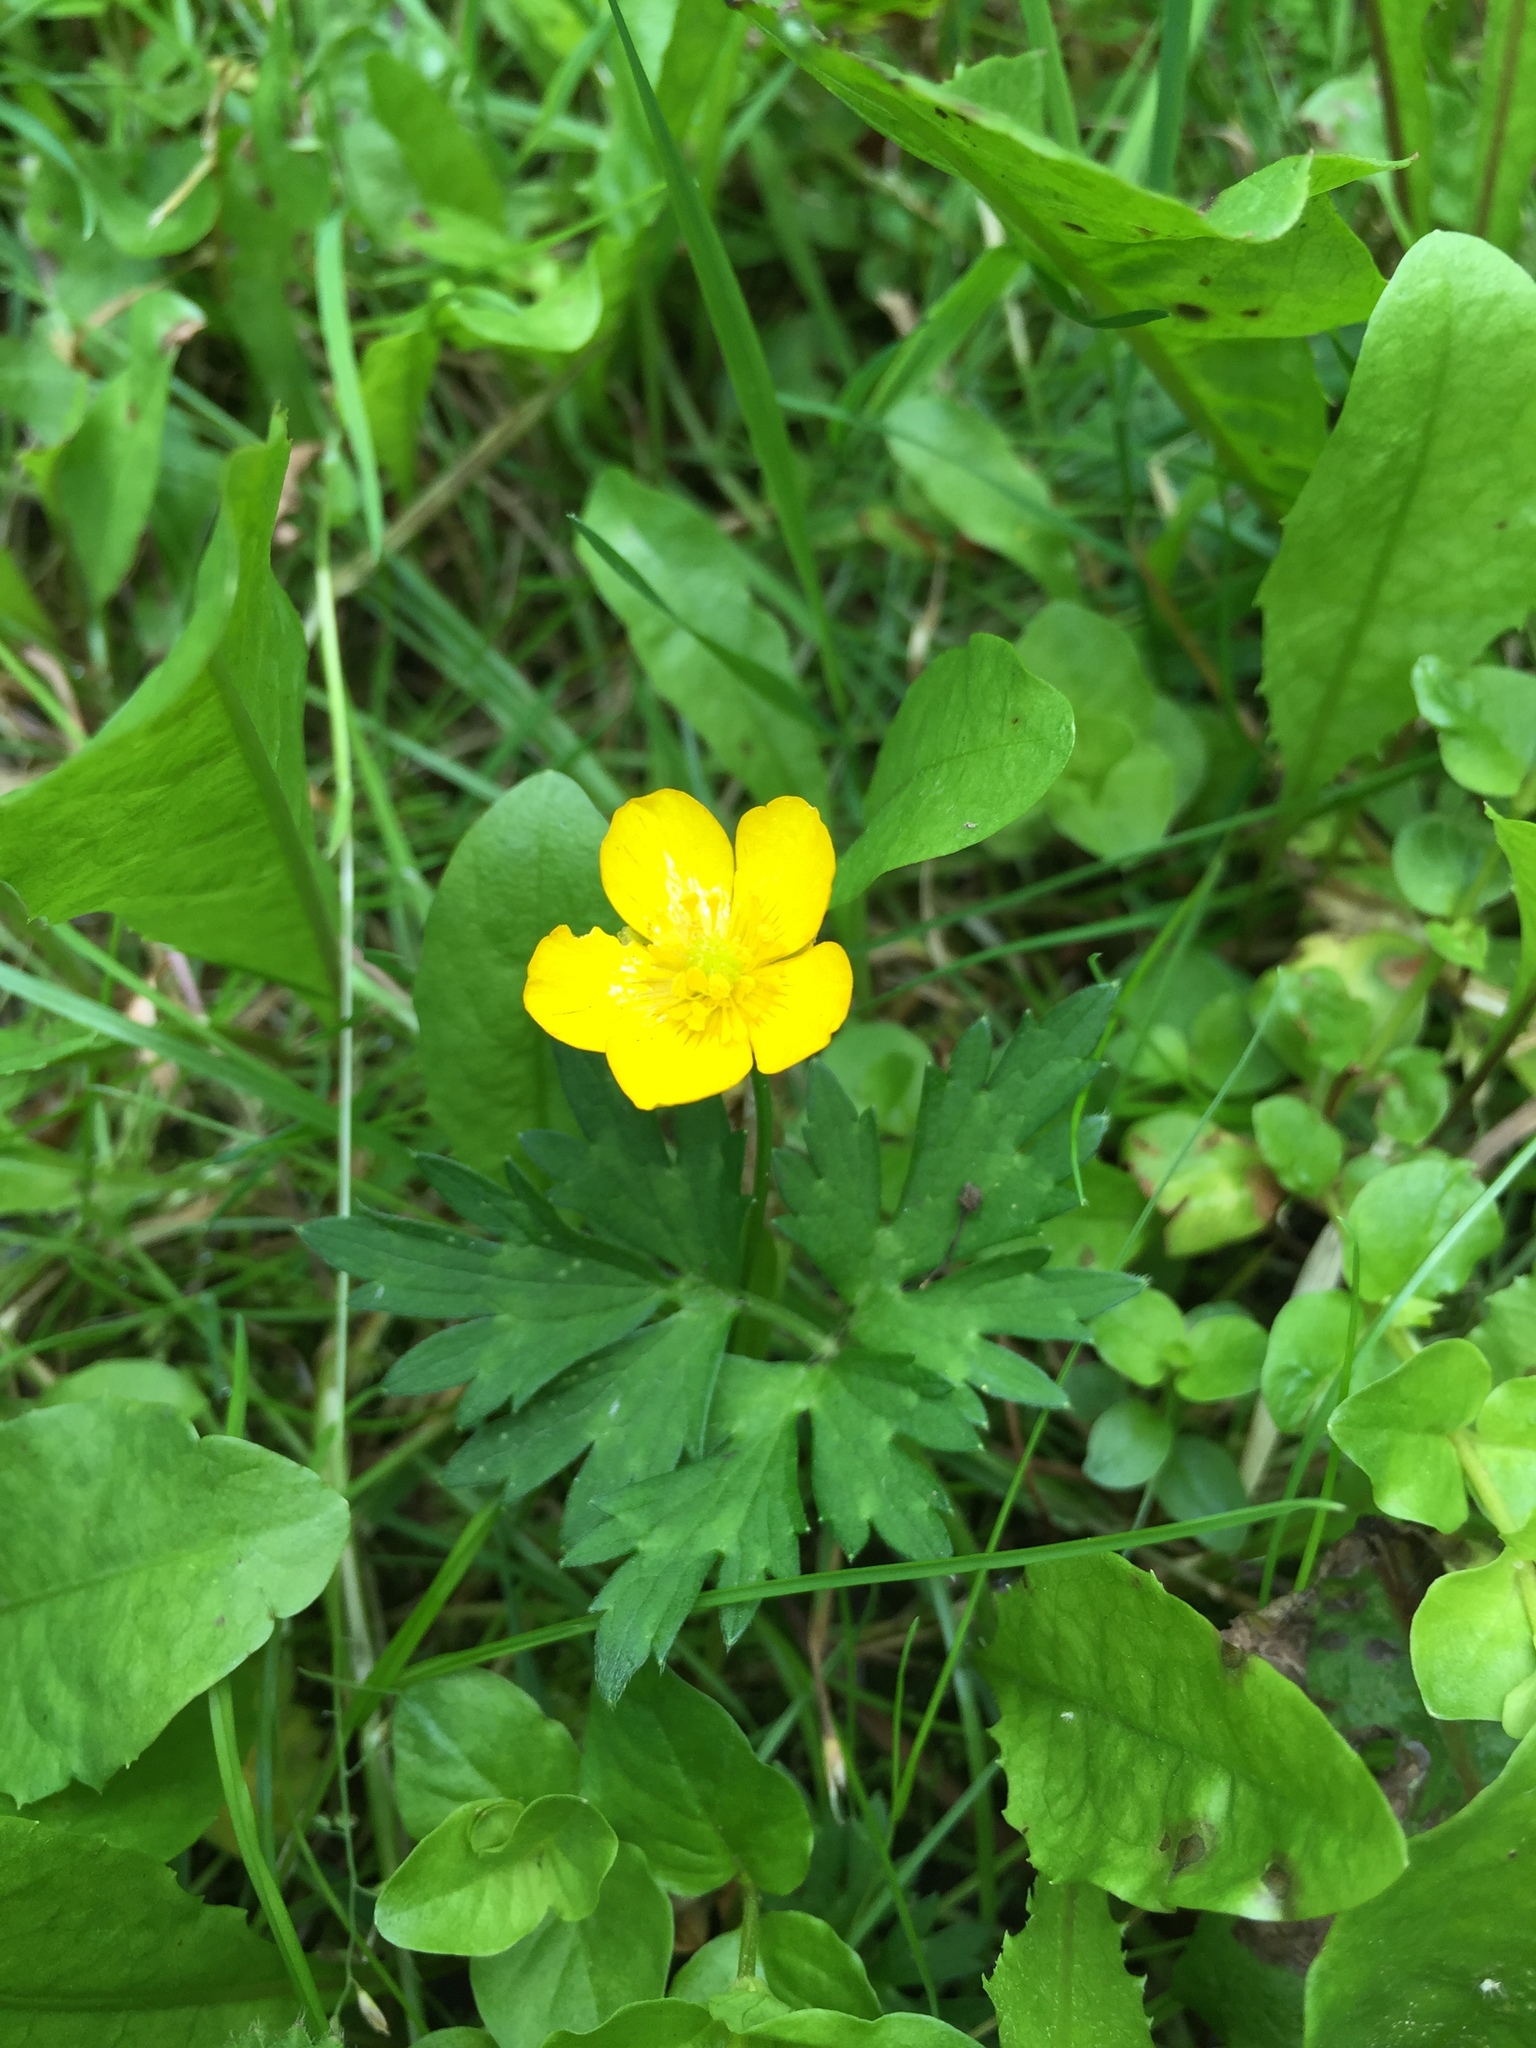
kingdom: Plantae
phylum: Tracheophyta
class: Magnoliopsida
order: Ranunculales
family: Ranunculaceae
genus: Ranunculus
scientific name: Ranunculus repens
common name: Creeping buttercup
